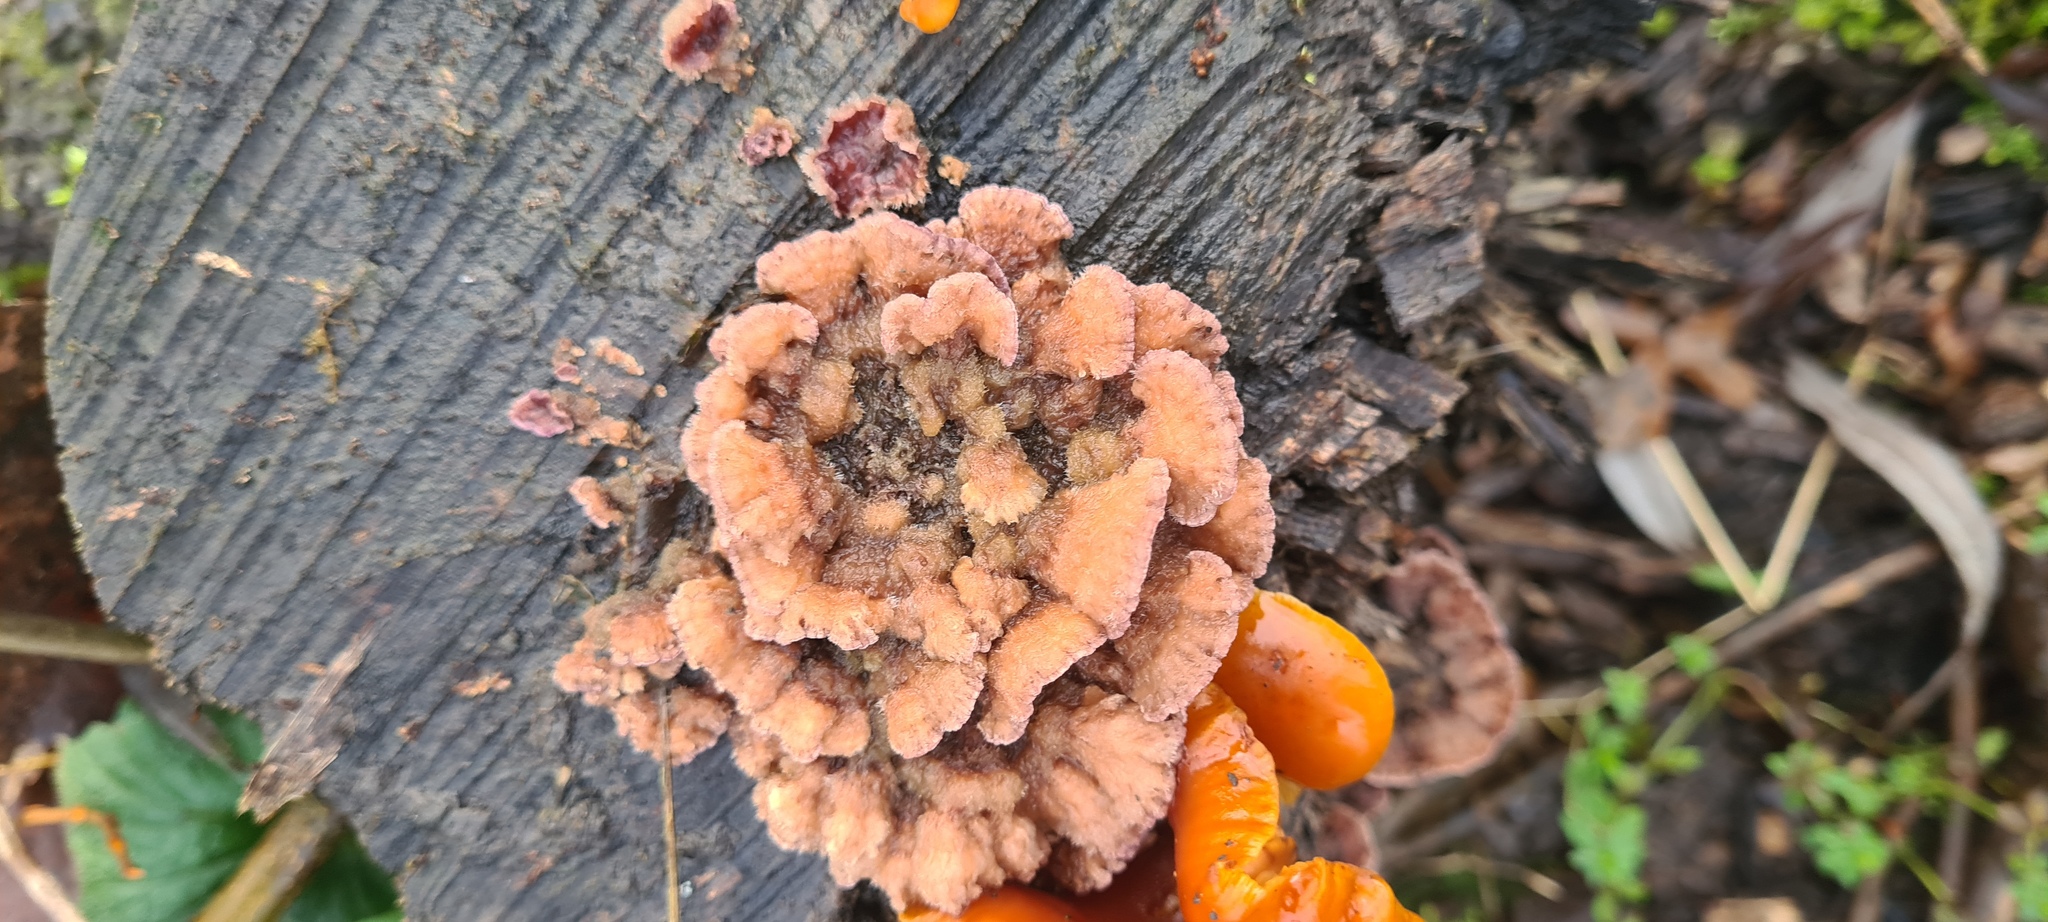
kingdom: Fungi
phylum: Basidiomycota
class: Agaricomycetes
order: Agaricales
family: Physalacriaceae
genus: Flammulina
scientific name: Flammulina
